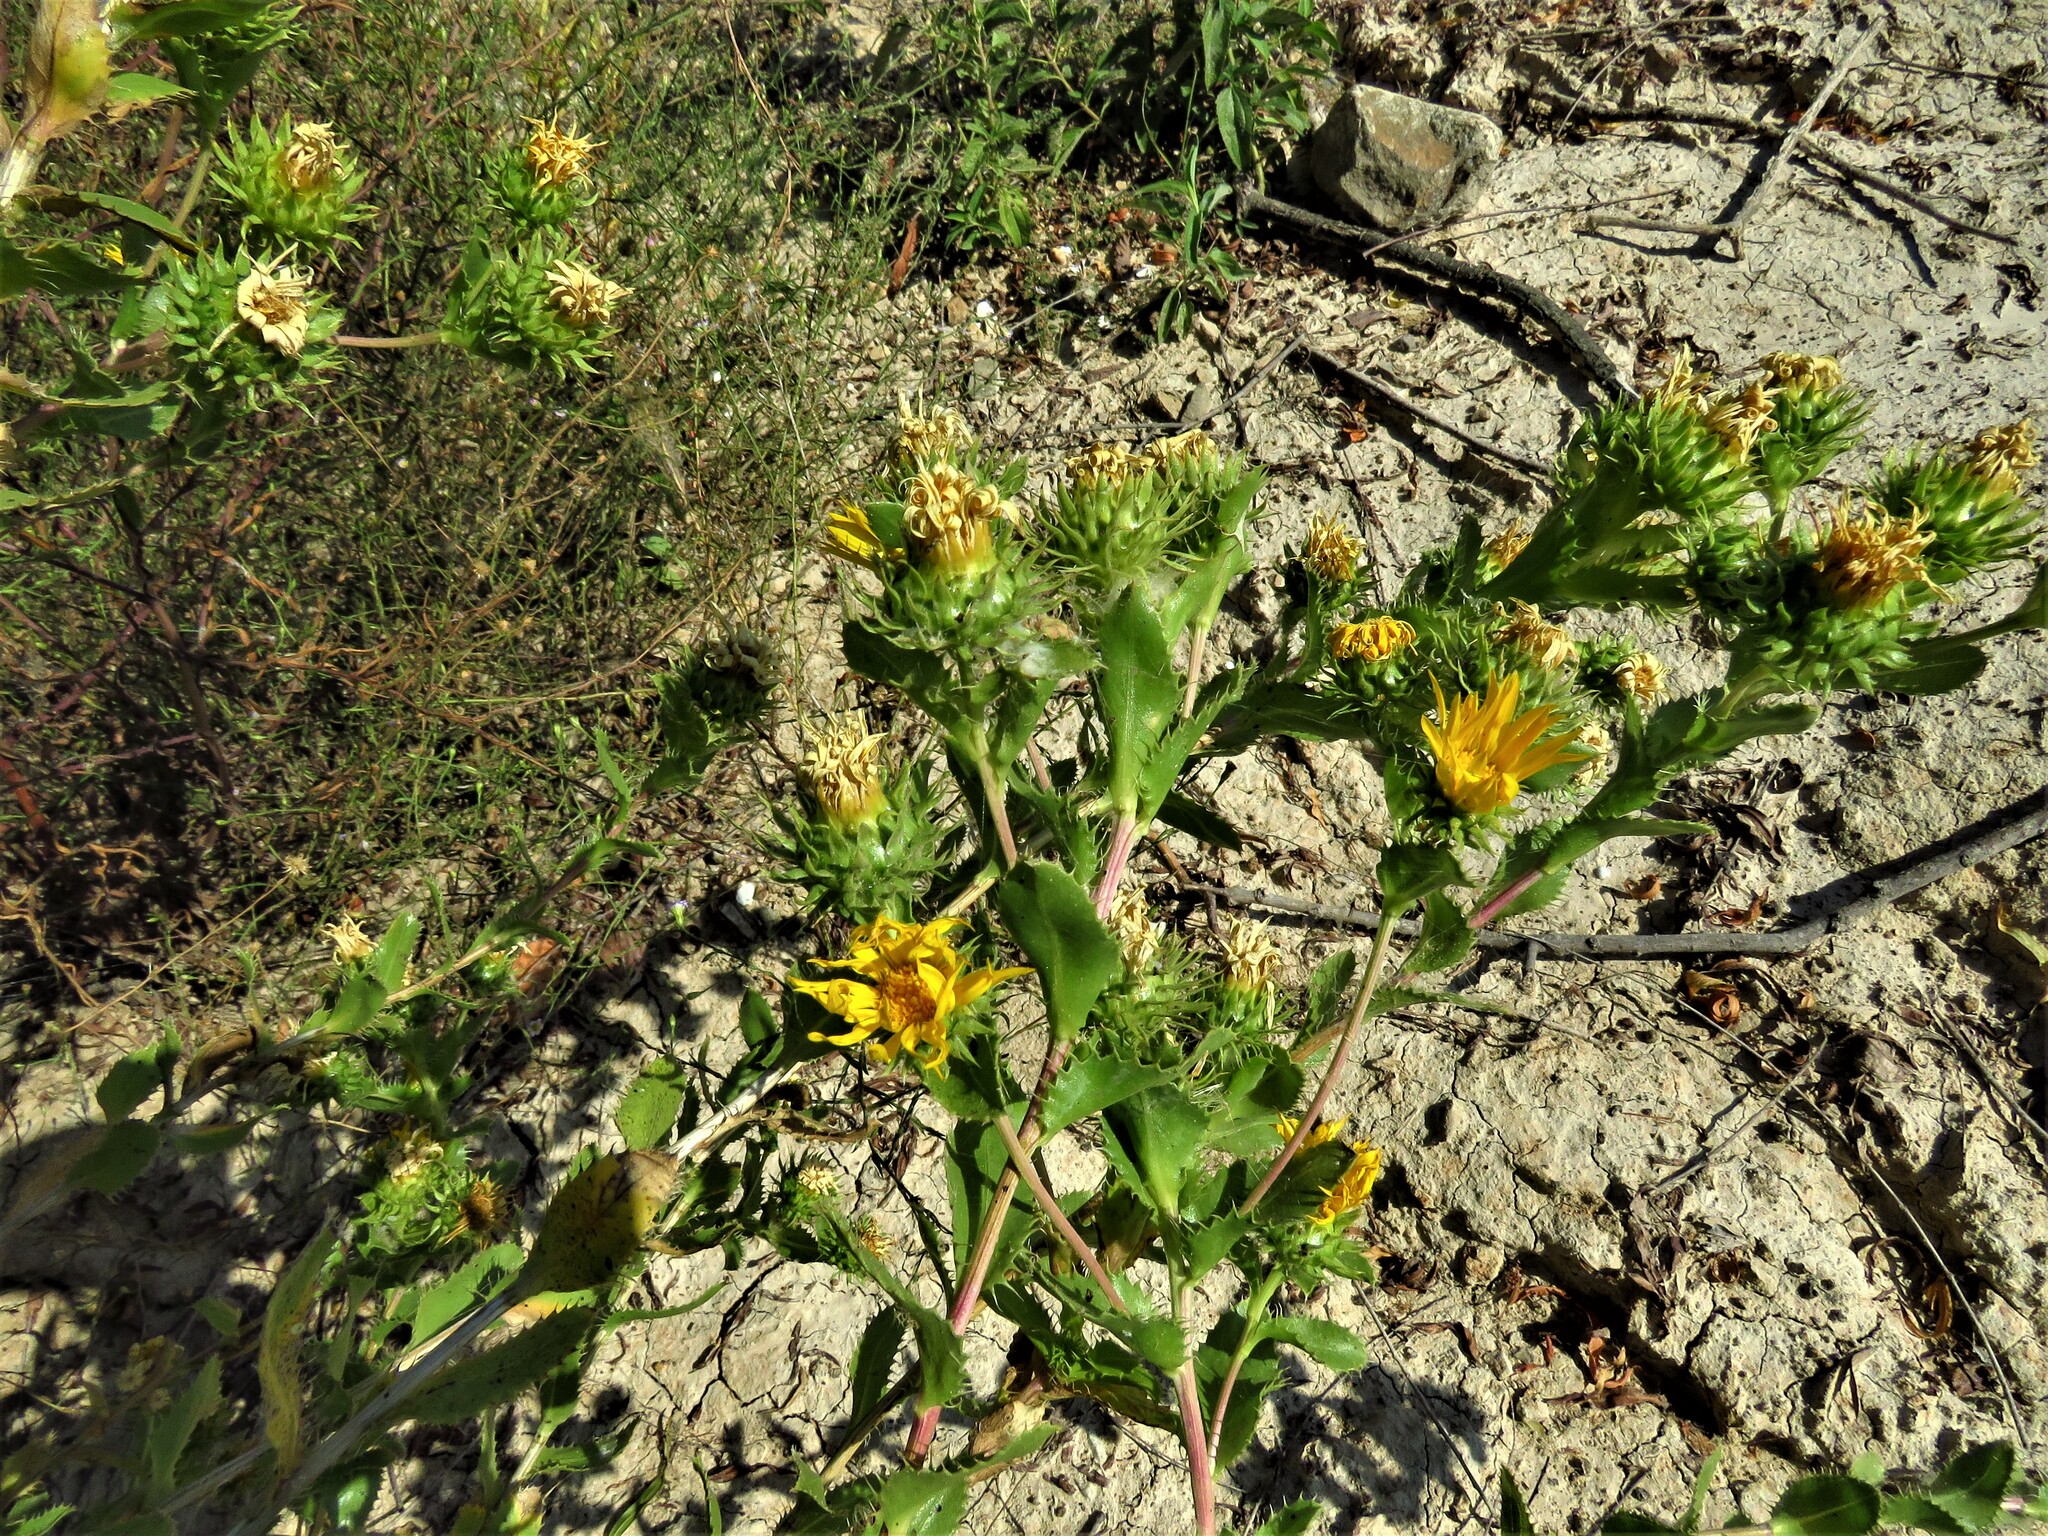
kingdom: Plantae
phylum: Tracheophyta
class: Magnoliopsida
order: Asterales
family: Asteraceae
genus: Grindelia
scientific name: Grindelia ciliata
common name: Goldenweed
